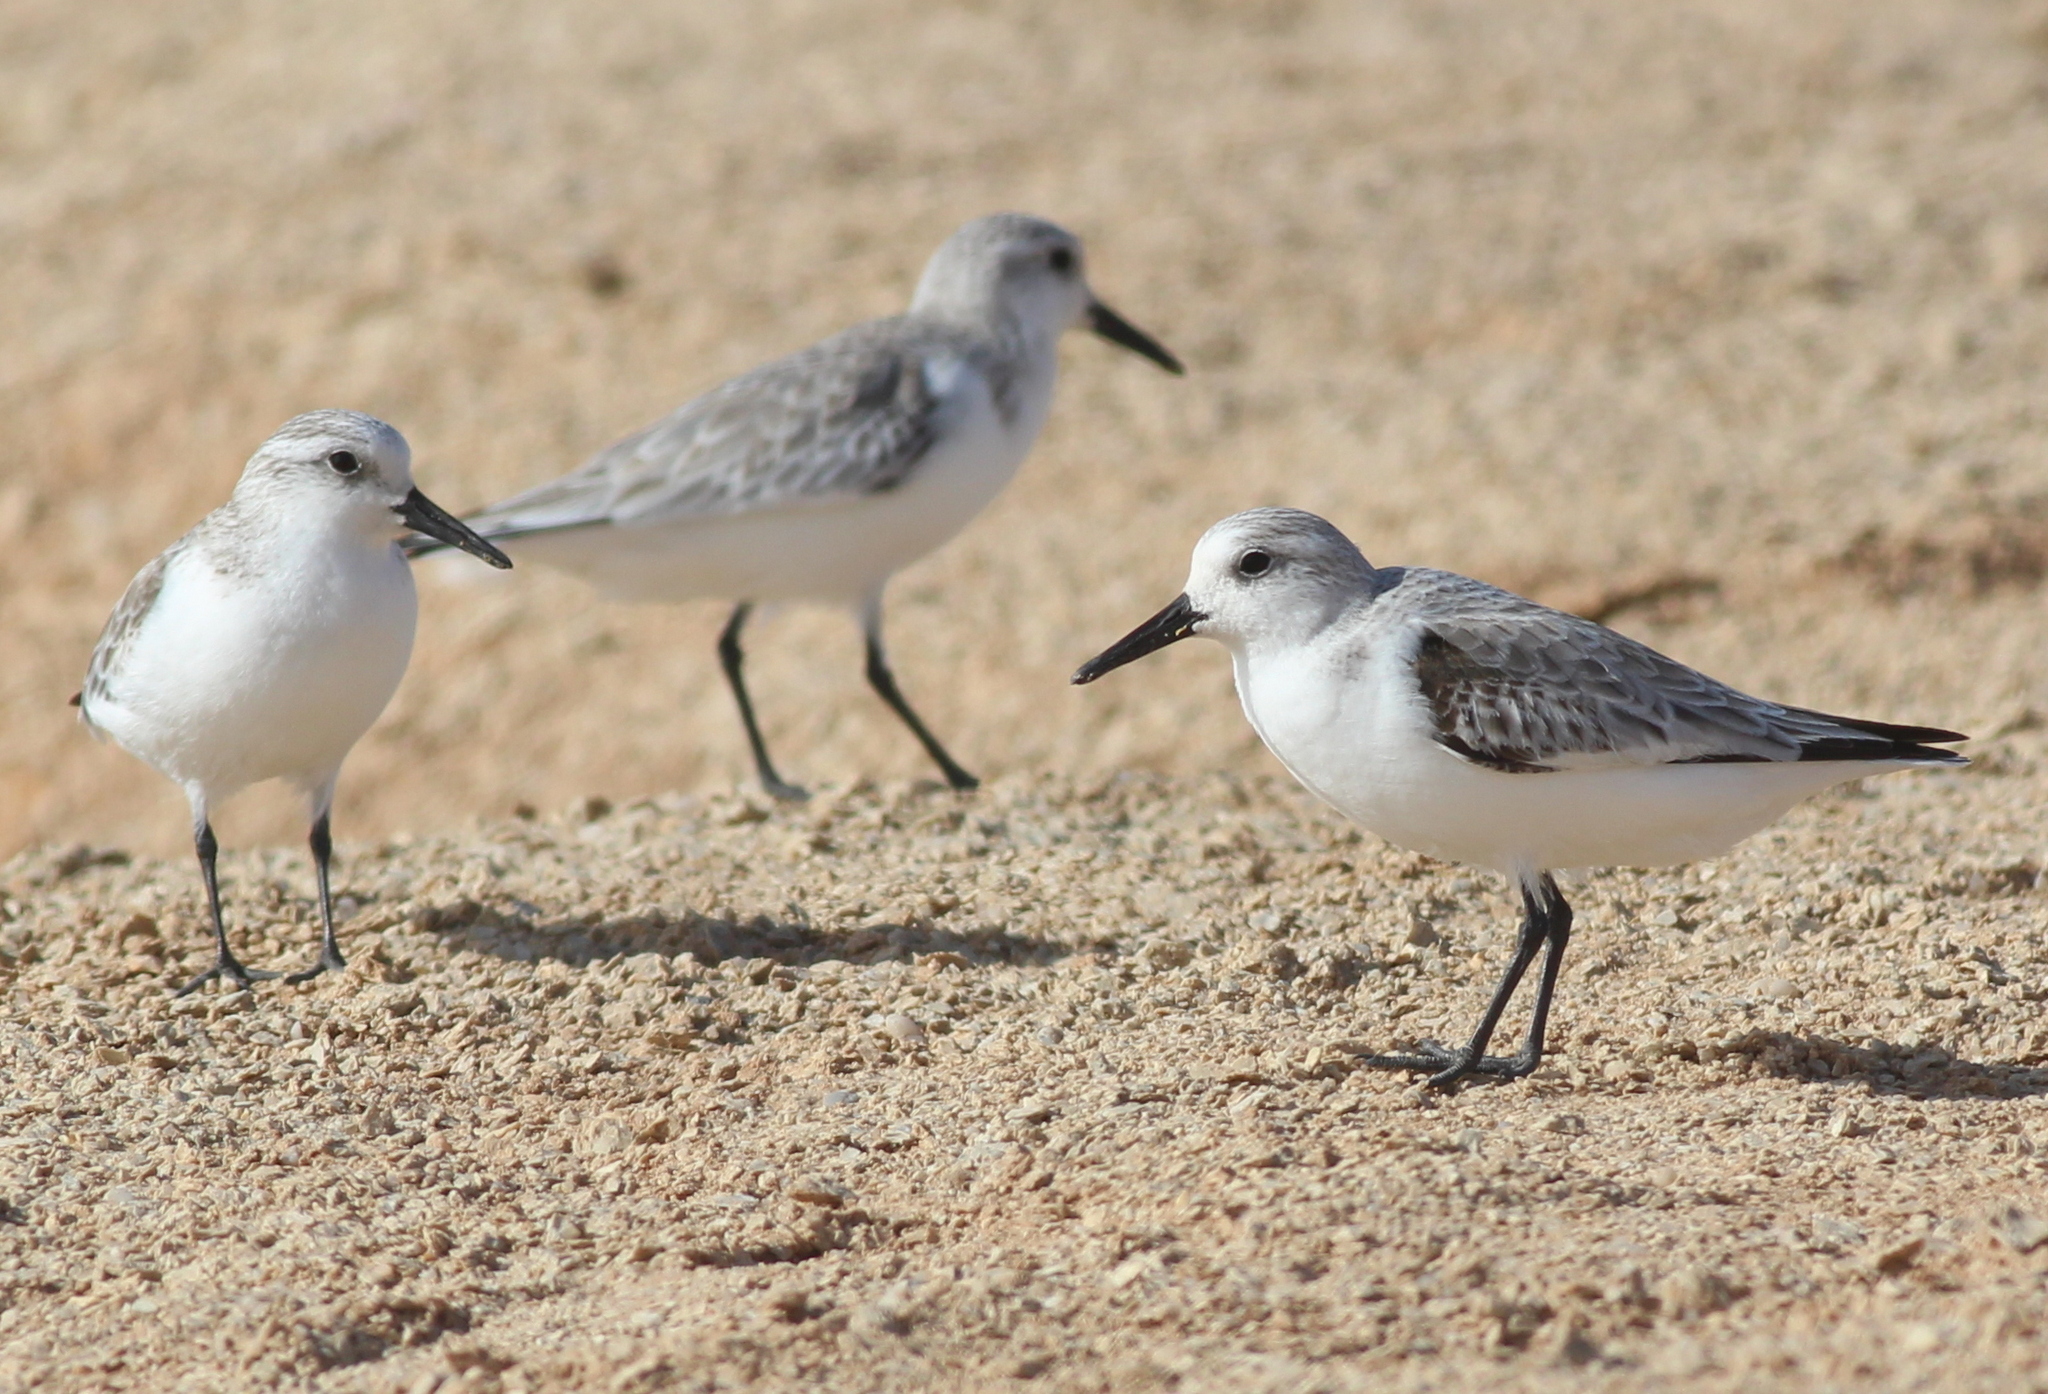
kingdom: Animalia
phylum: Chordata
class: Aves
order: Charadriiformes
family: Scolopacidae
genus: Calidris
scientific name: Calidris alba
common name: Sanderling
